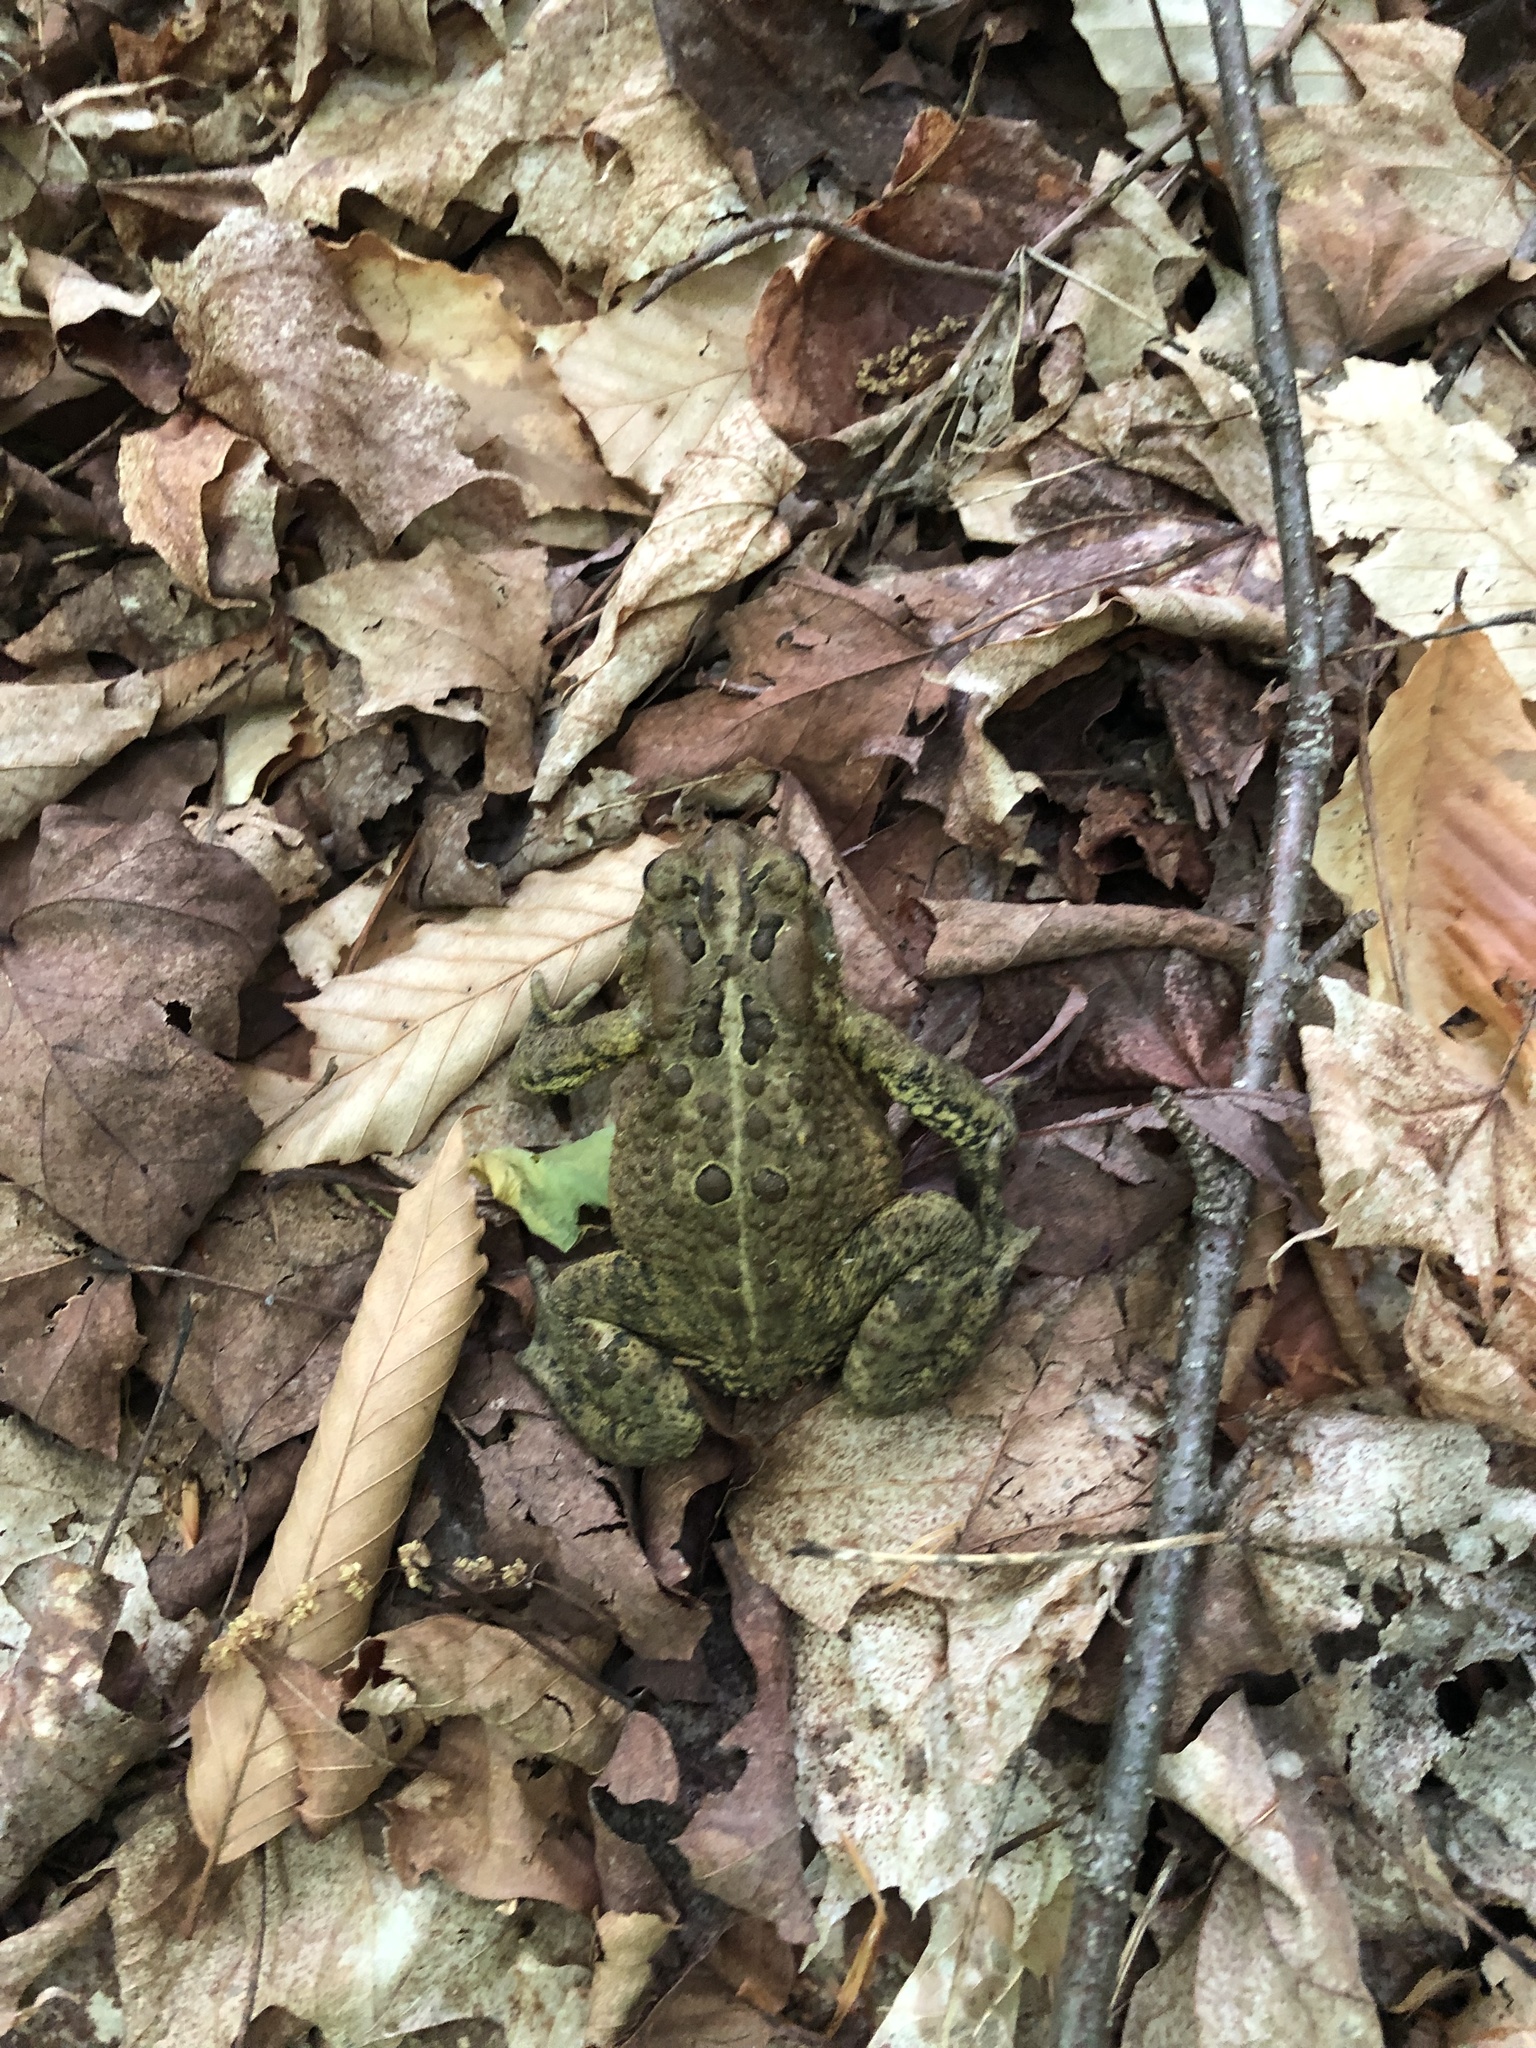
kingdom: Animalia
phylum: Chordata
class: Amphibia
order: Anura
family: Bufonidae
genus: Anaxyrus
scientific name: Anaxyrus americanus
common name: American toad
